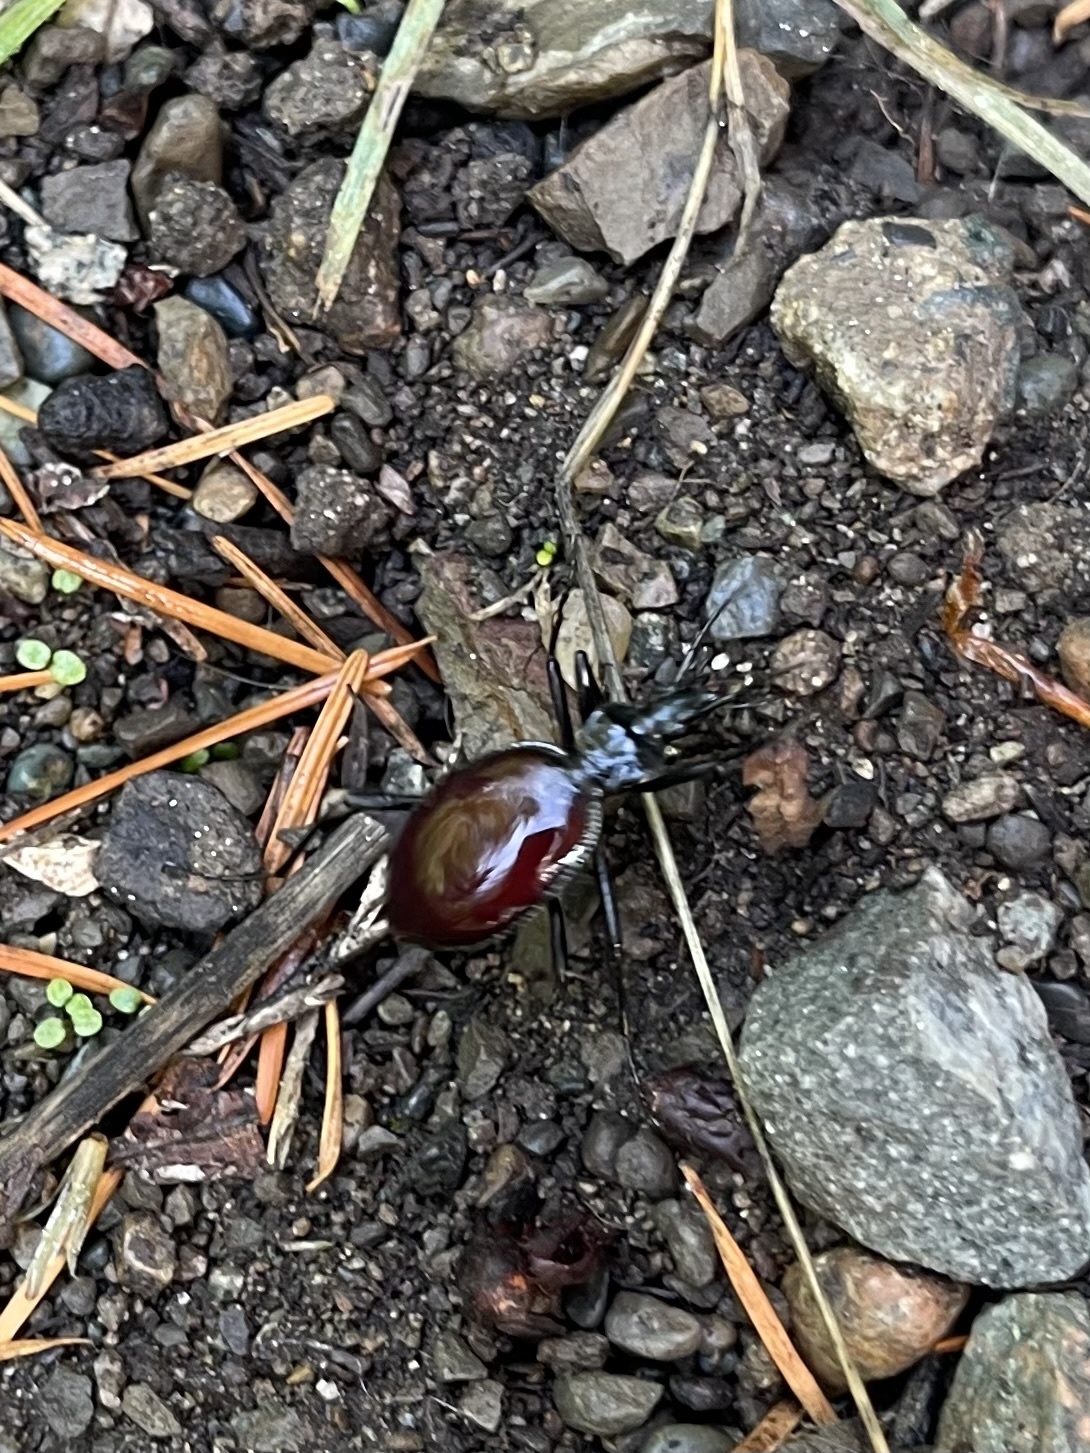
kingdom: Animalia
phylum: Arthropoda
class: Insecta
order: Coleoptera
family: Carabidae
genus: Scaphinotus
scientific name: Scaphinotus angusticollis
